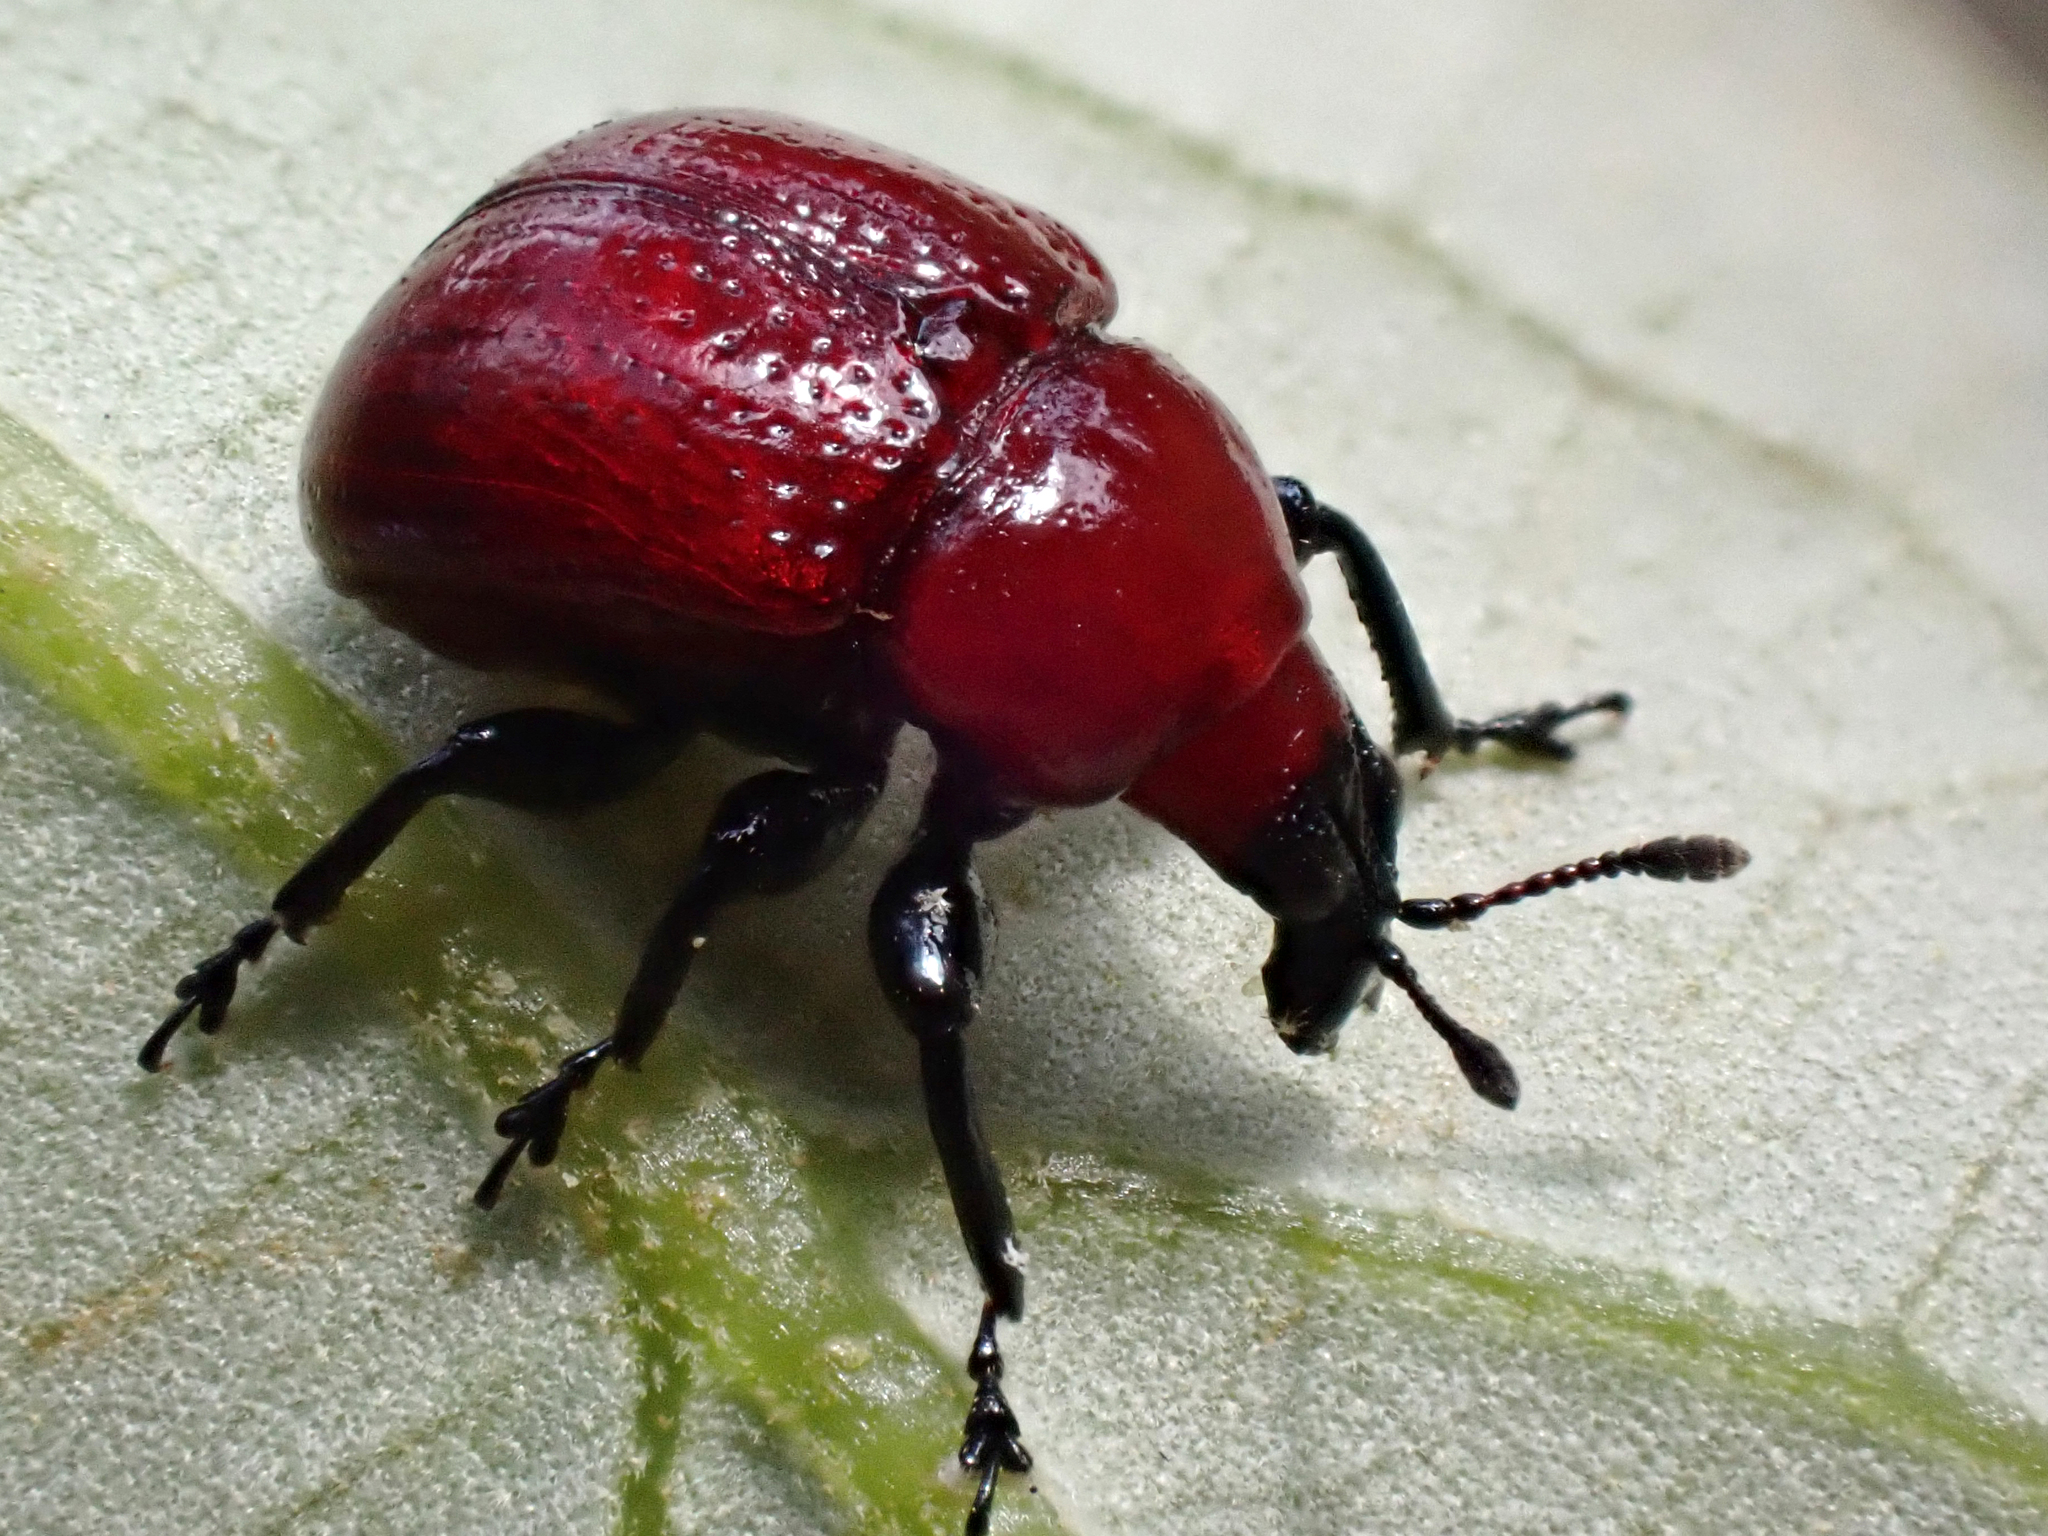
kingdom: Animalia
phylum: Arthropoda
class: Insecta
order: Coleoptera
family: Attelabidae
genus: Homoeolabus
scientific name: Homoeolabus analis
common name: Oak leaf rolling weevil
